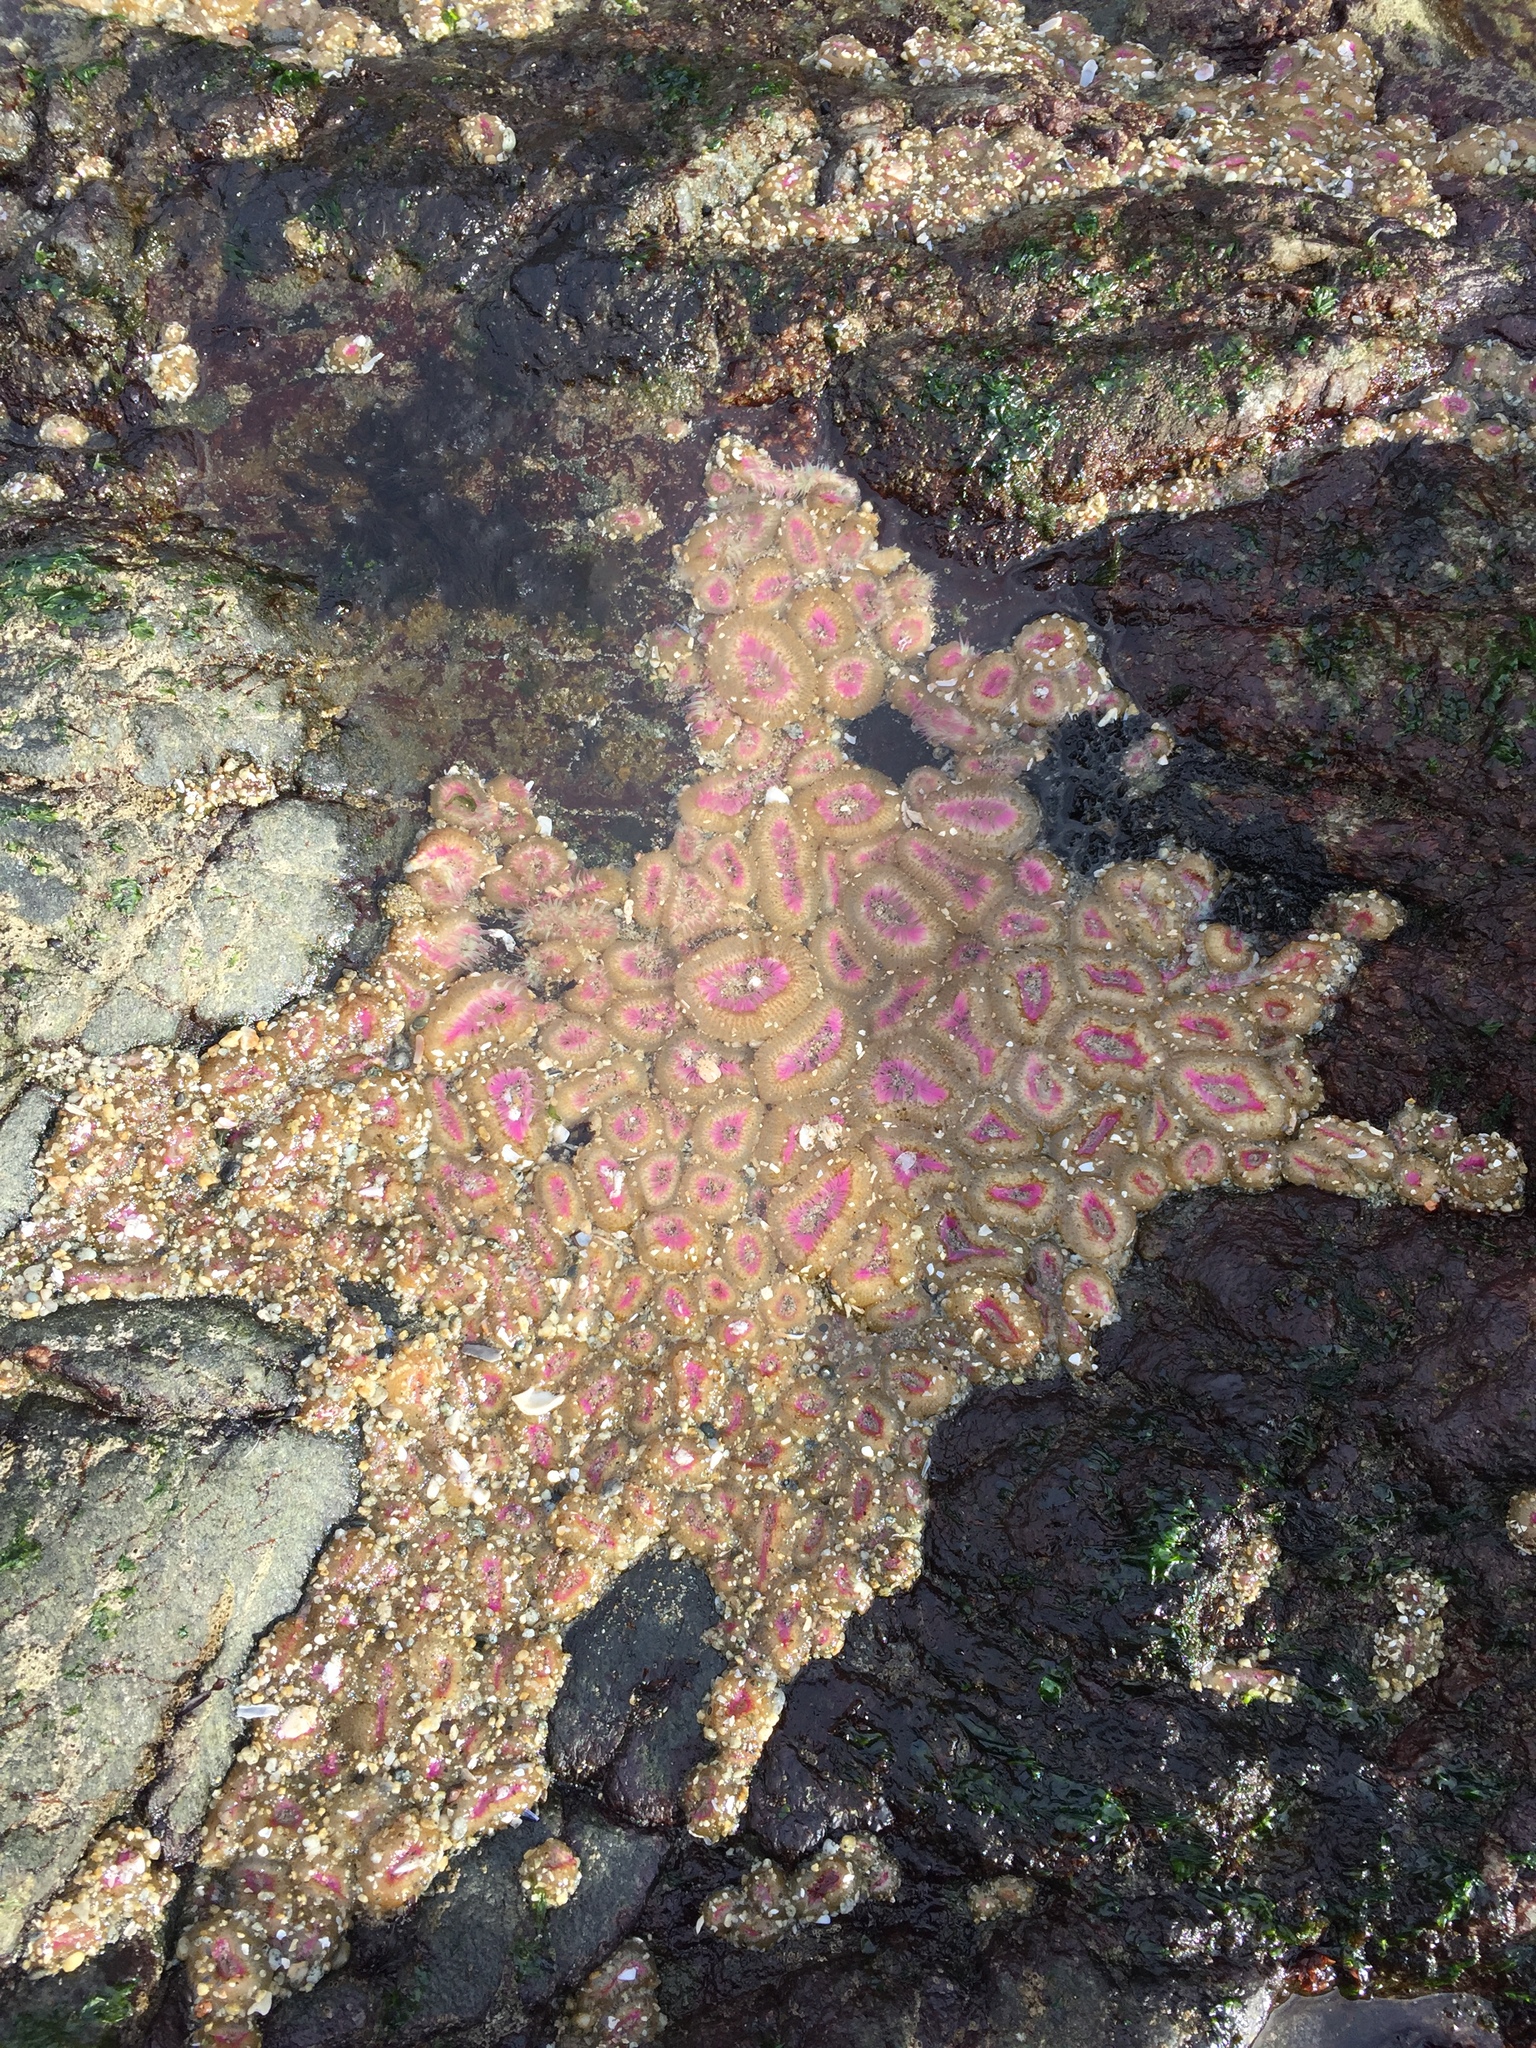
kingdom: Animalia
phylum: Cnidaria
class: Anthozoa
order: Actiniaria
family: Actiniidae
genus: Anthopleura
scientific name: Anthopleura elegantissima
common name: Clonal anemone
